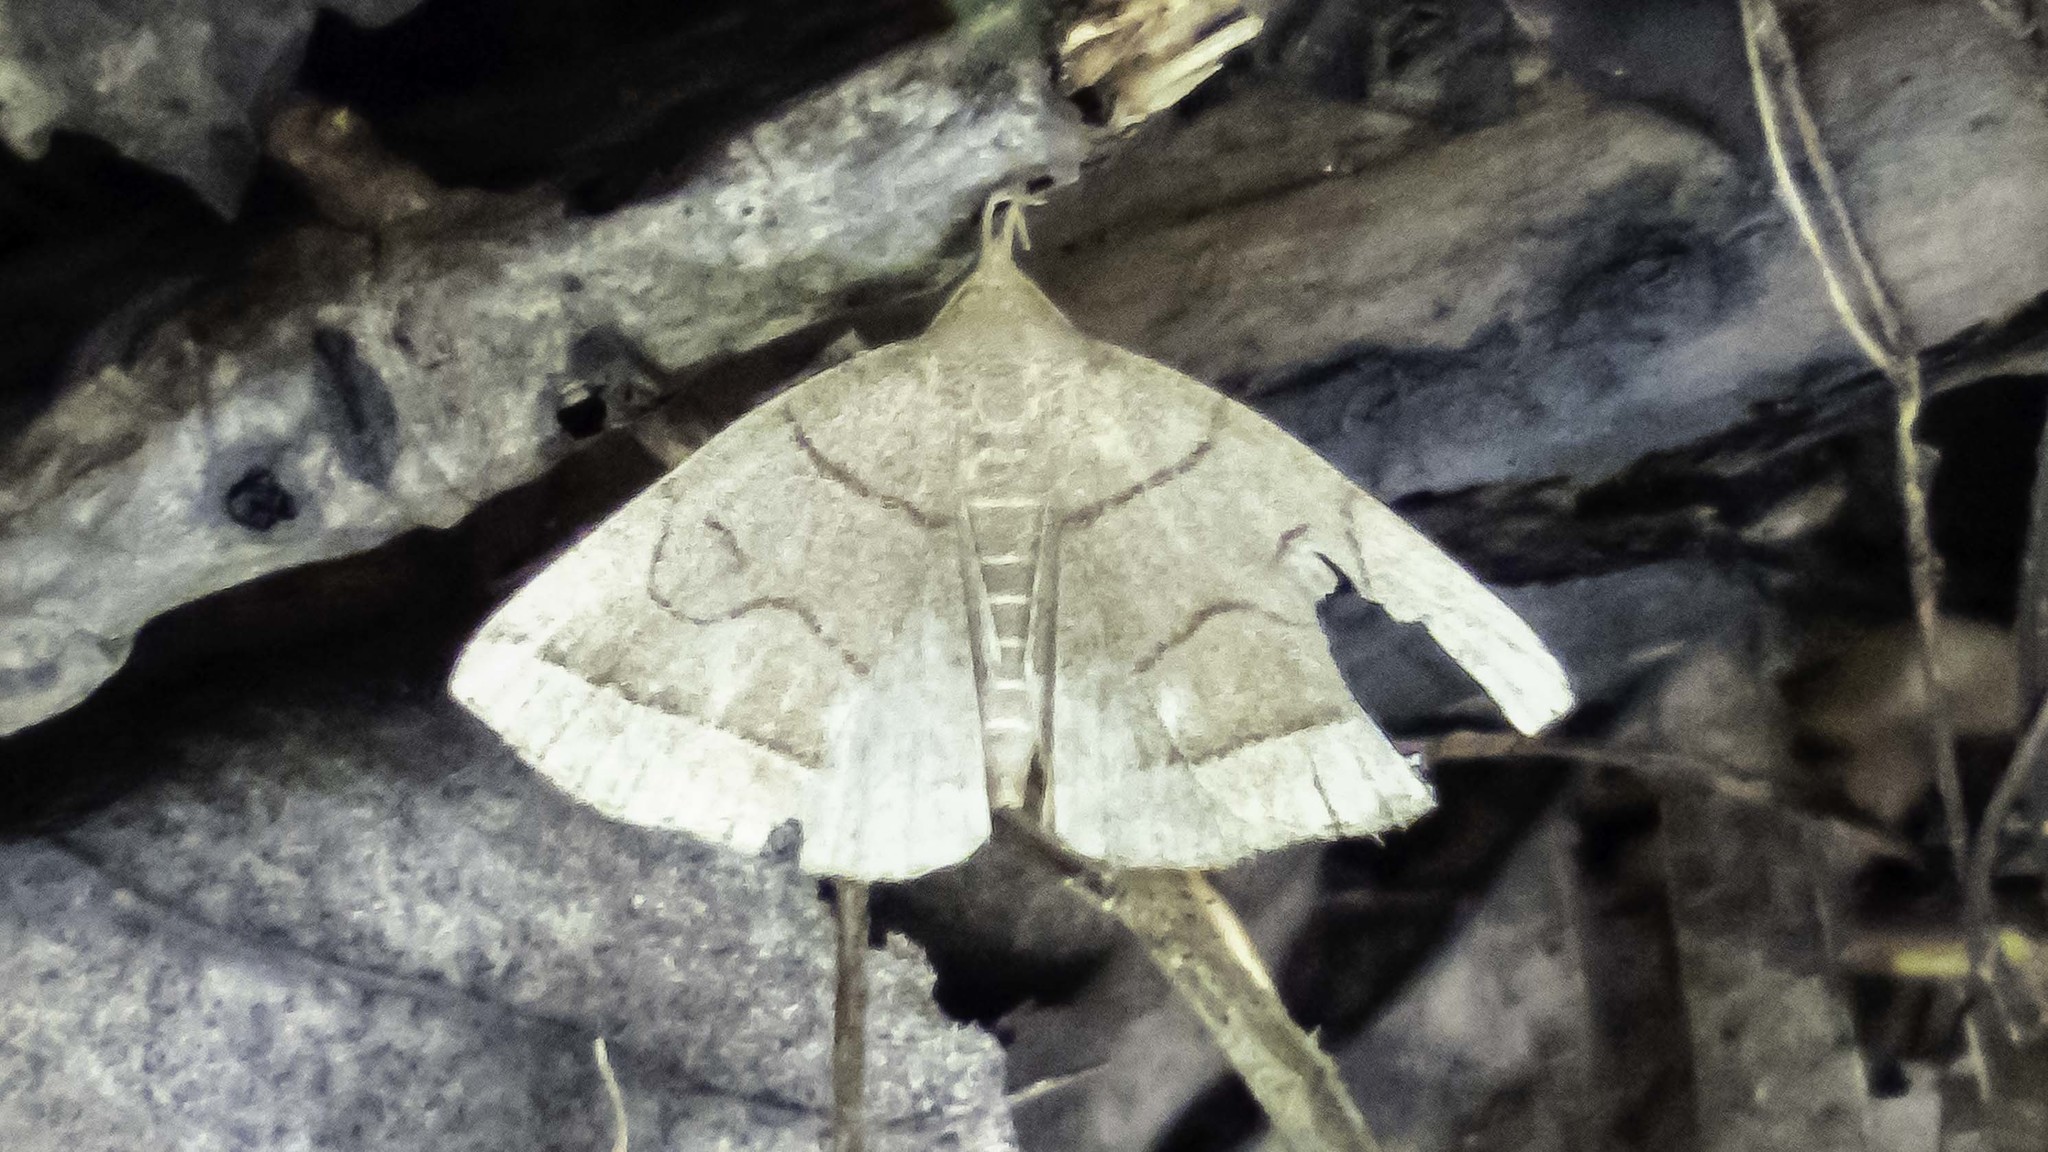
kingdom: Animalia
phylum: Arthropoda
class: Insecta
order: Lepidoptera
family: Erebidae
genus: Zanclognatha
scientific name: Zanclognatha cruralis
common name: Early fan-foot
